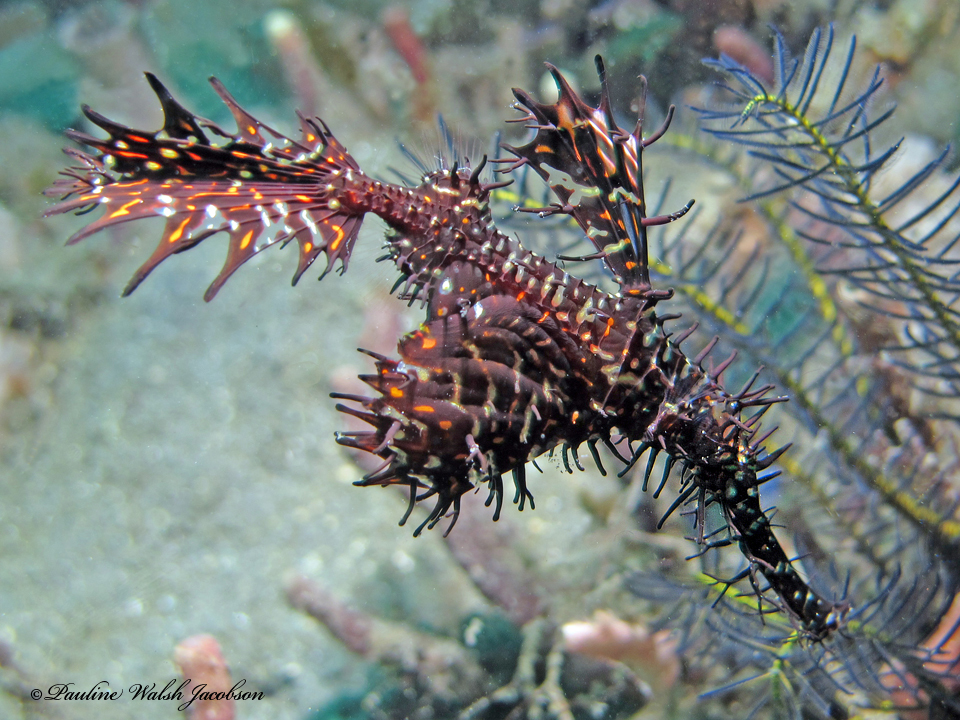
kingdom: Animalia
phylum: Chordata
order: Syngnathiformes
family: Solenostomidae
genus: Solenostomus
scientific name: Solenostomus paradoxus
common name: Ghost pipefish
